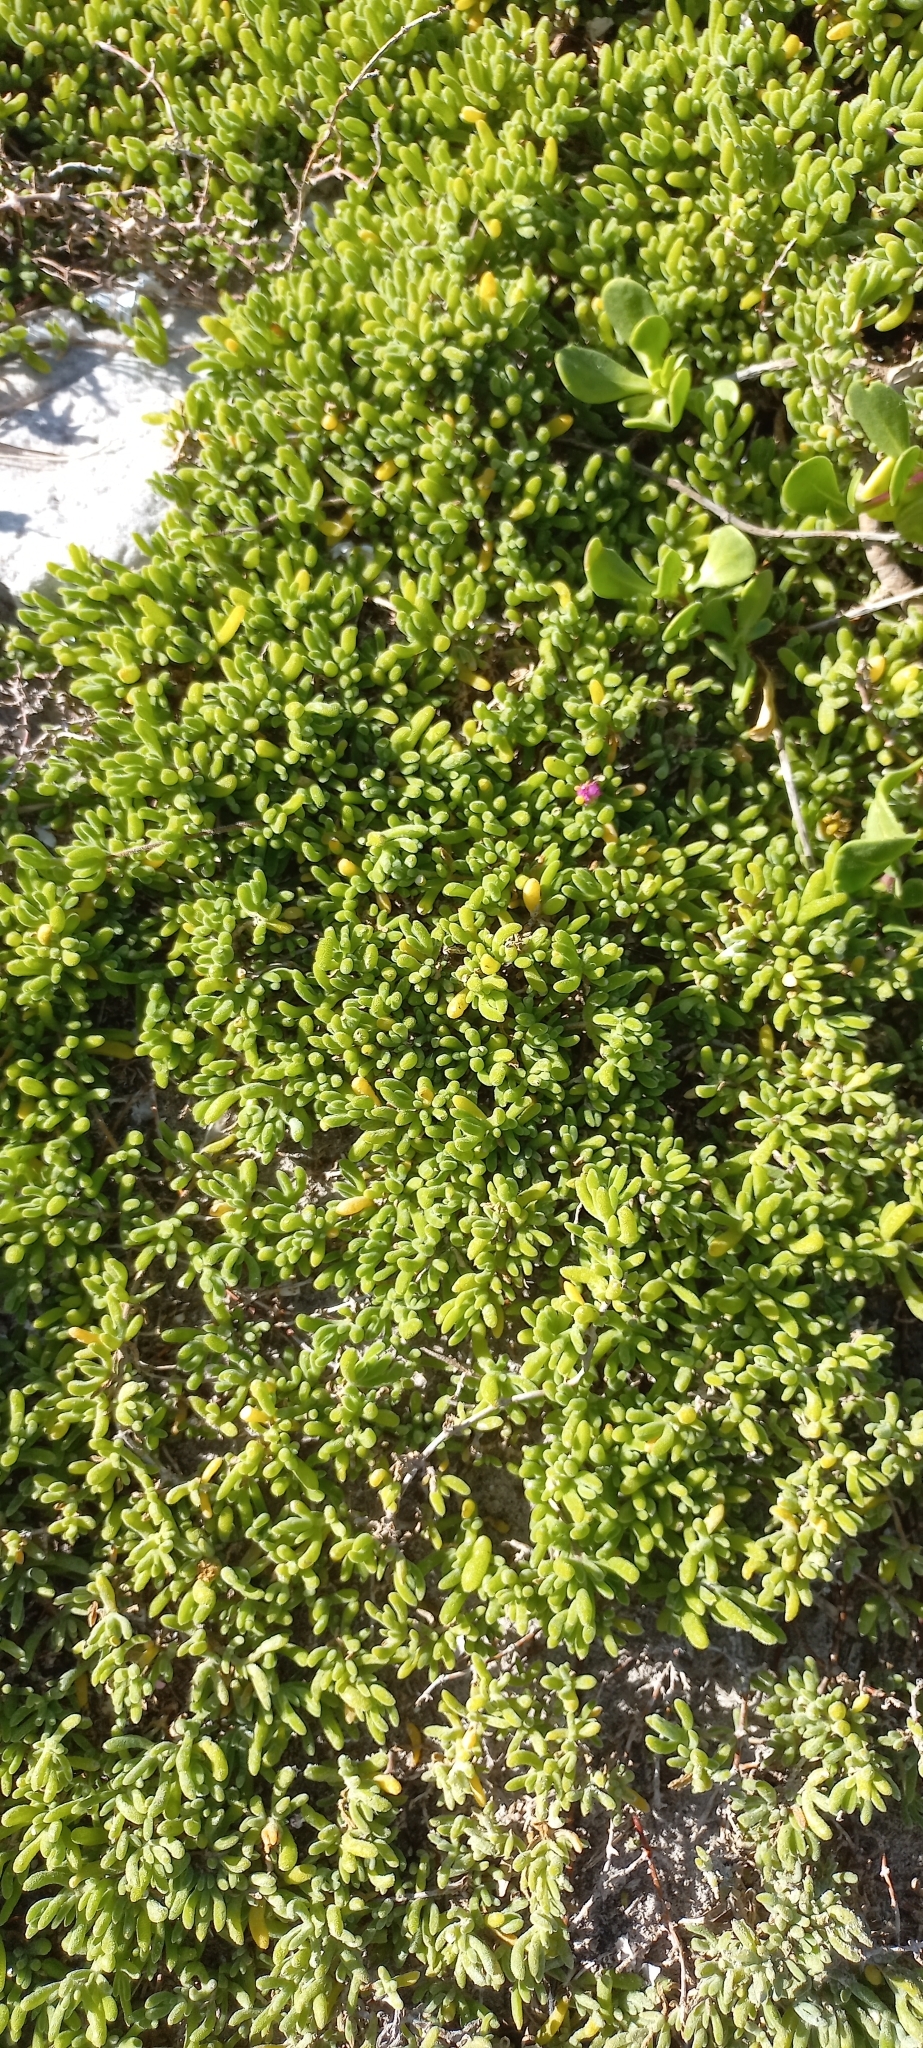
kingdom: Plantae
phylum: Tracheophyta
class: Magnoliopsida
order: Caryophyllales
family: Aizoaceae
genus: Drosanthemum
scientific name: Drosanthemum candens
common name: Rodondo-creeper
